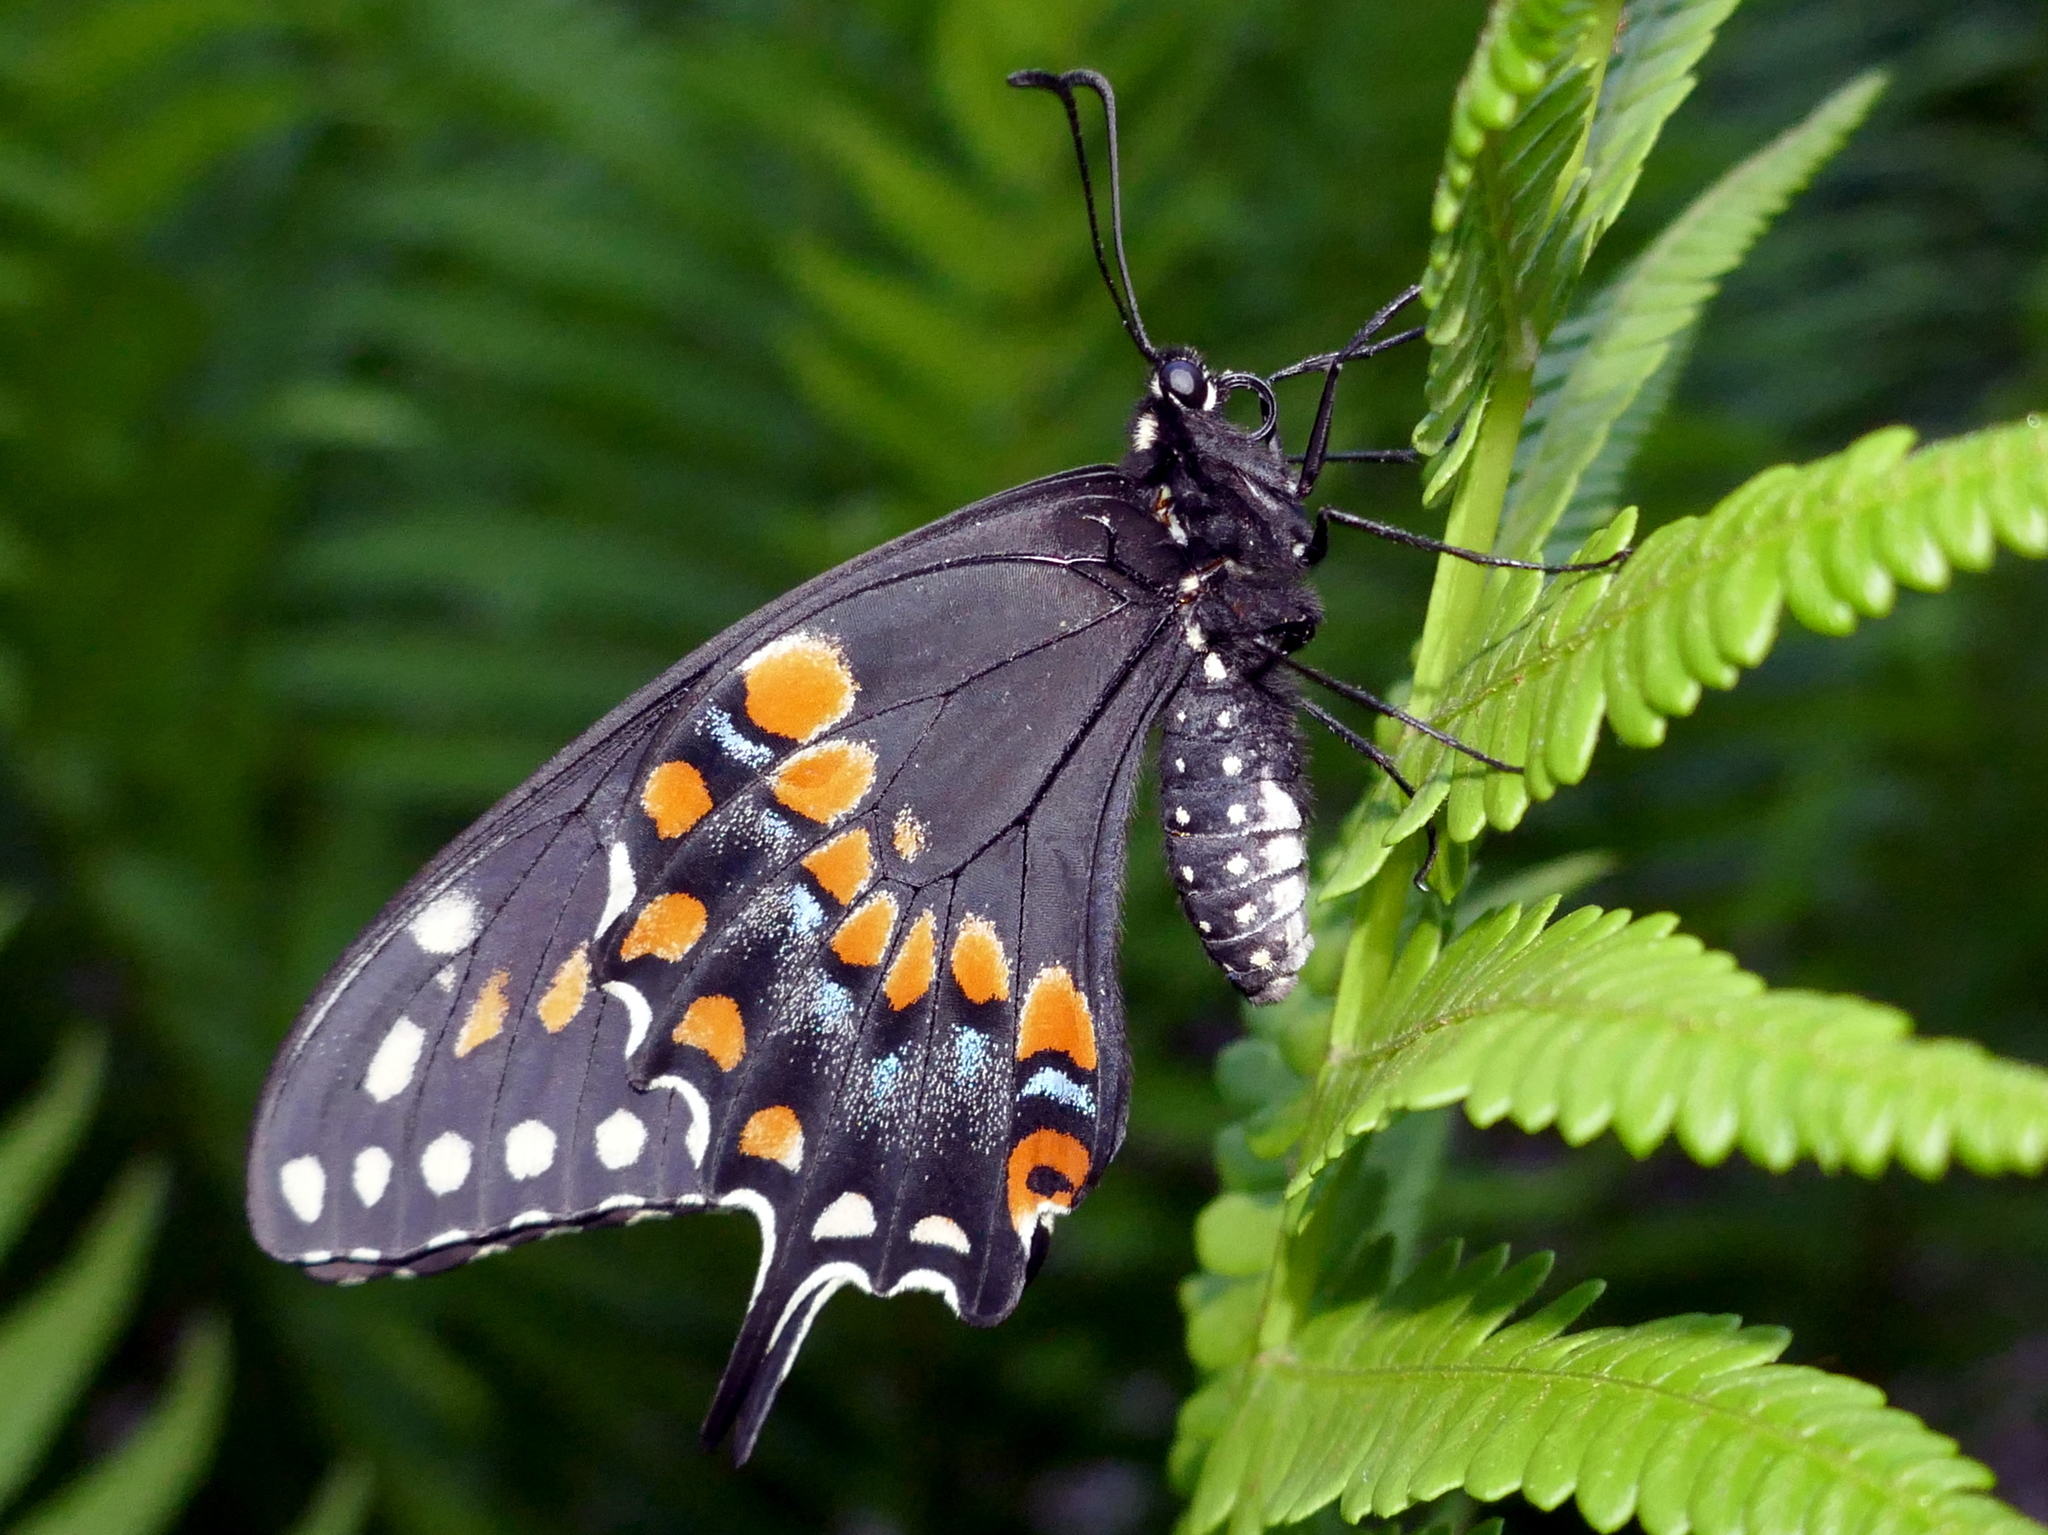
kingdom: Animalia
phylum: Arthropoda
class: Insecta
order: Lepidoptera
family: Papilionidae
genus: Papilio
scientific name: Papilio polyxenes
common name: Black swallowtail
